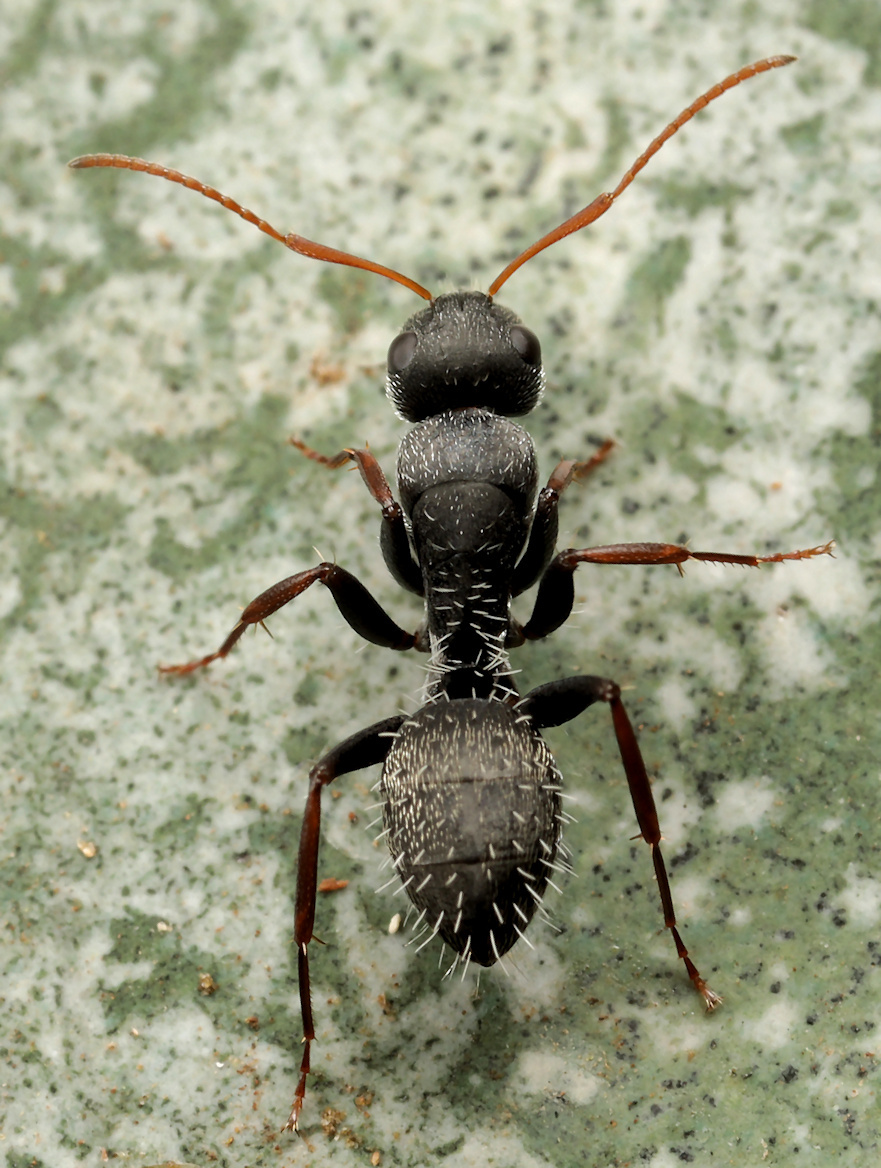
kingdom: Animalia
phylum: Arthropoda
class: Insecta
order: Hymenoptera
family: Formicidae
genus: Camponotus
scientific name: Camponotus auropubens
